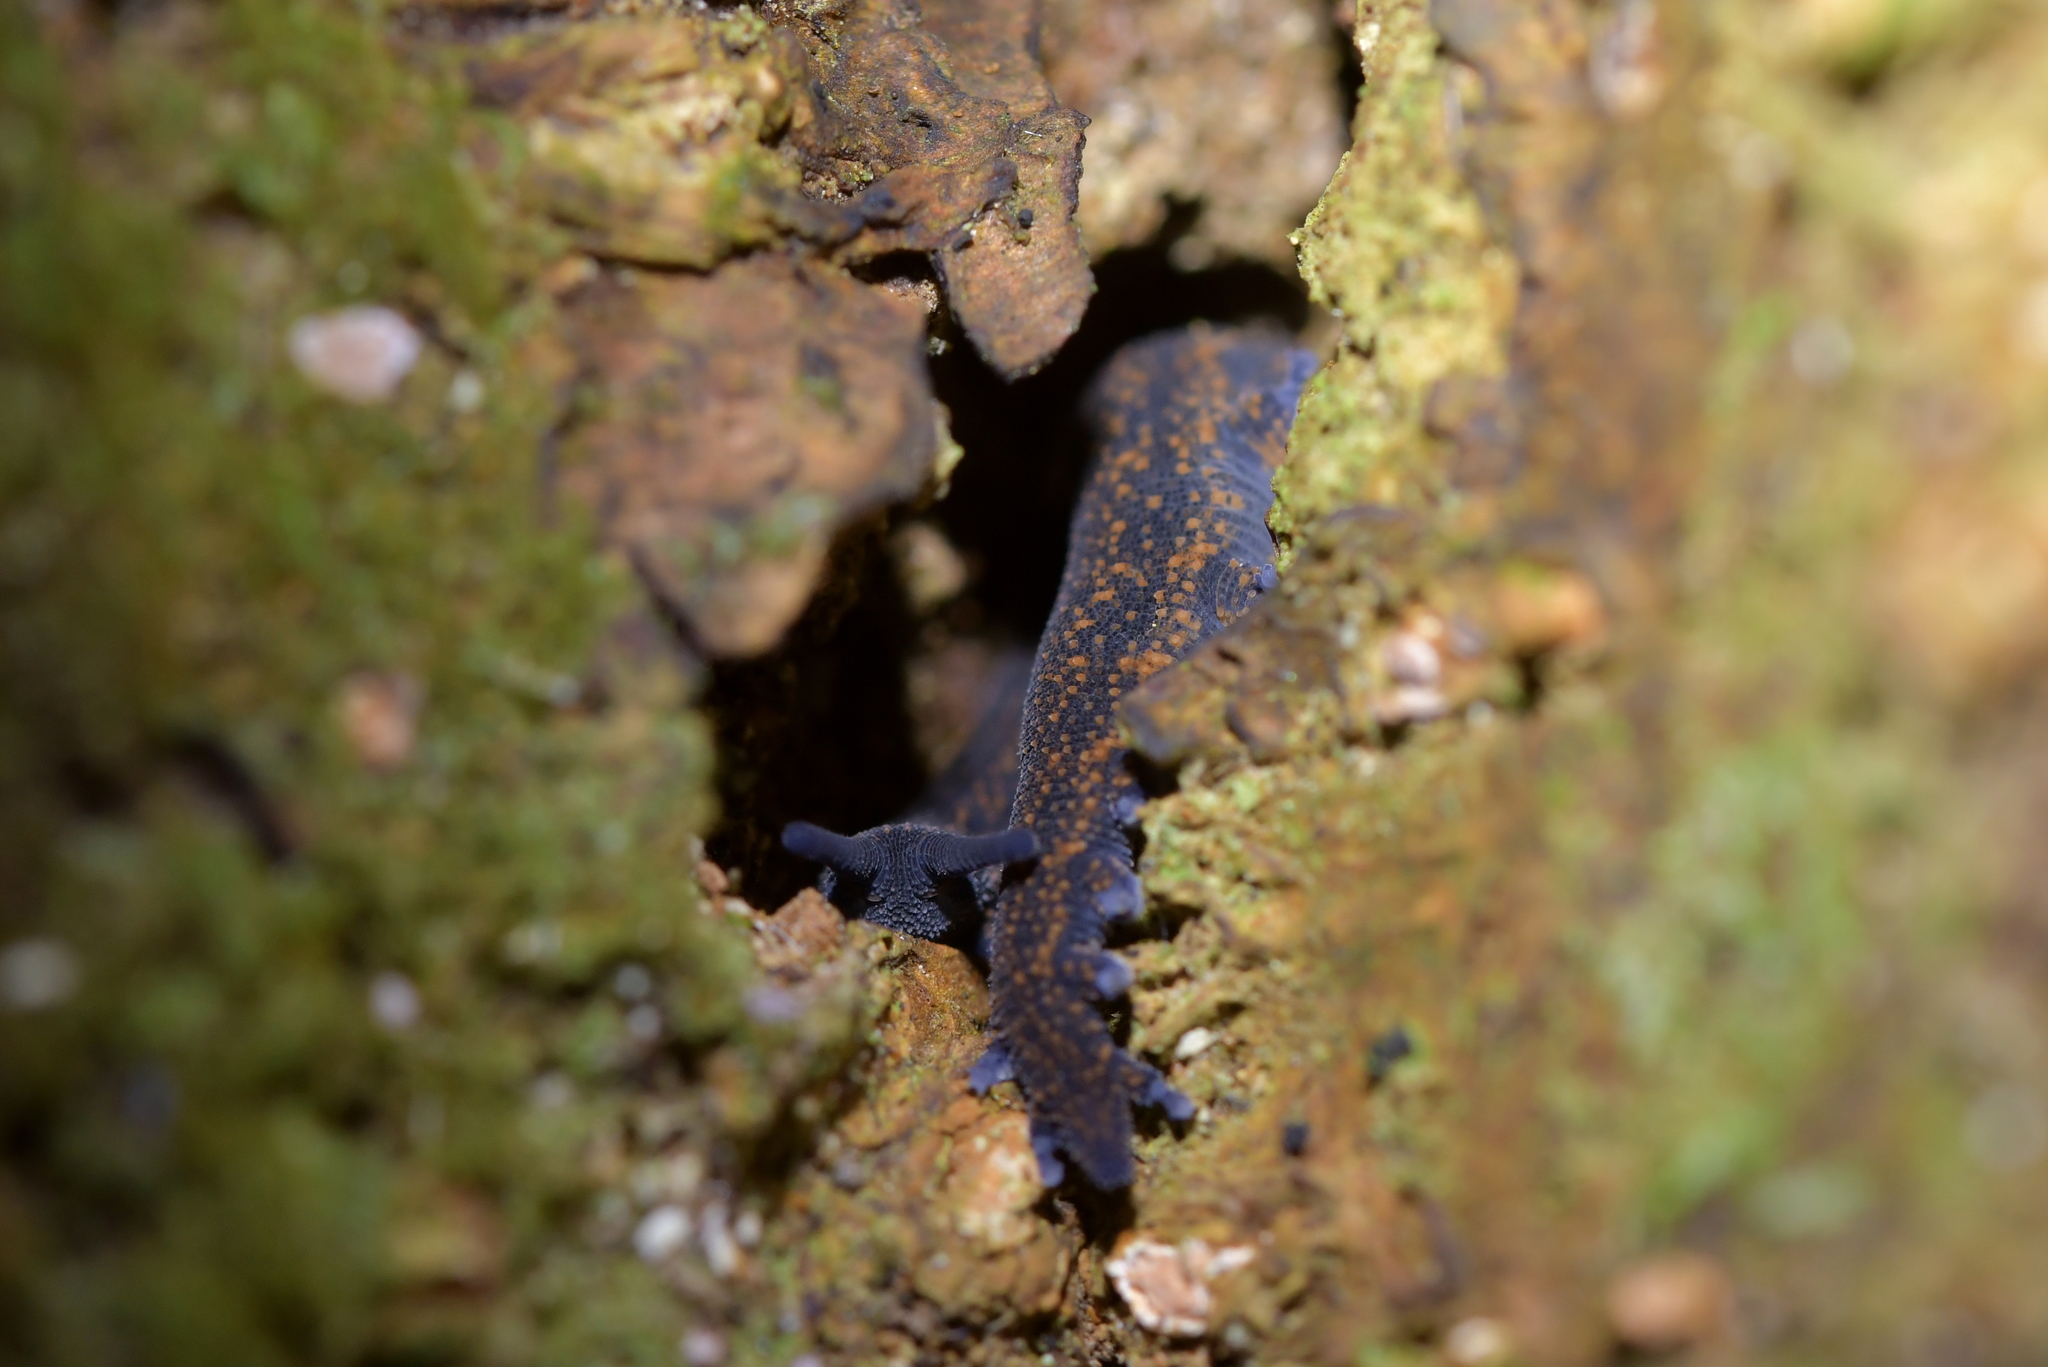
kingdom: Animalia
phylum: Onychophora
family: Peripatopsidae
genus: Peripatoides
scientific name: Peripatoides novaezealandiae
